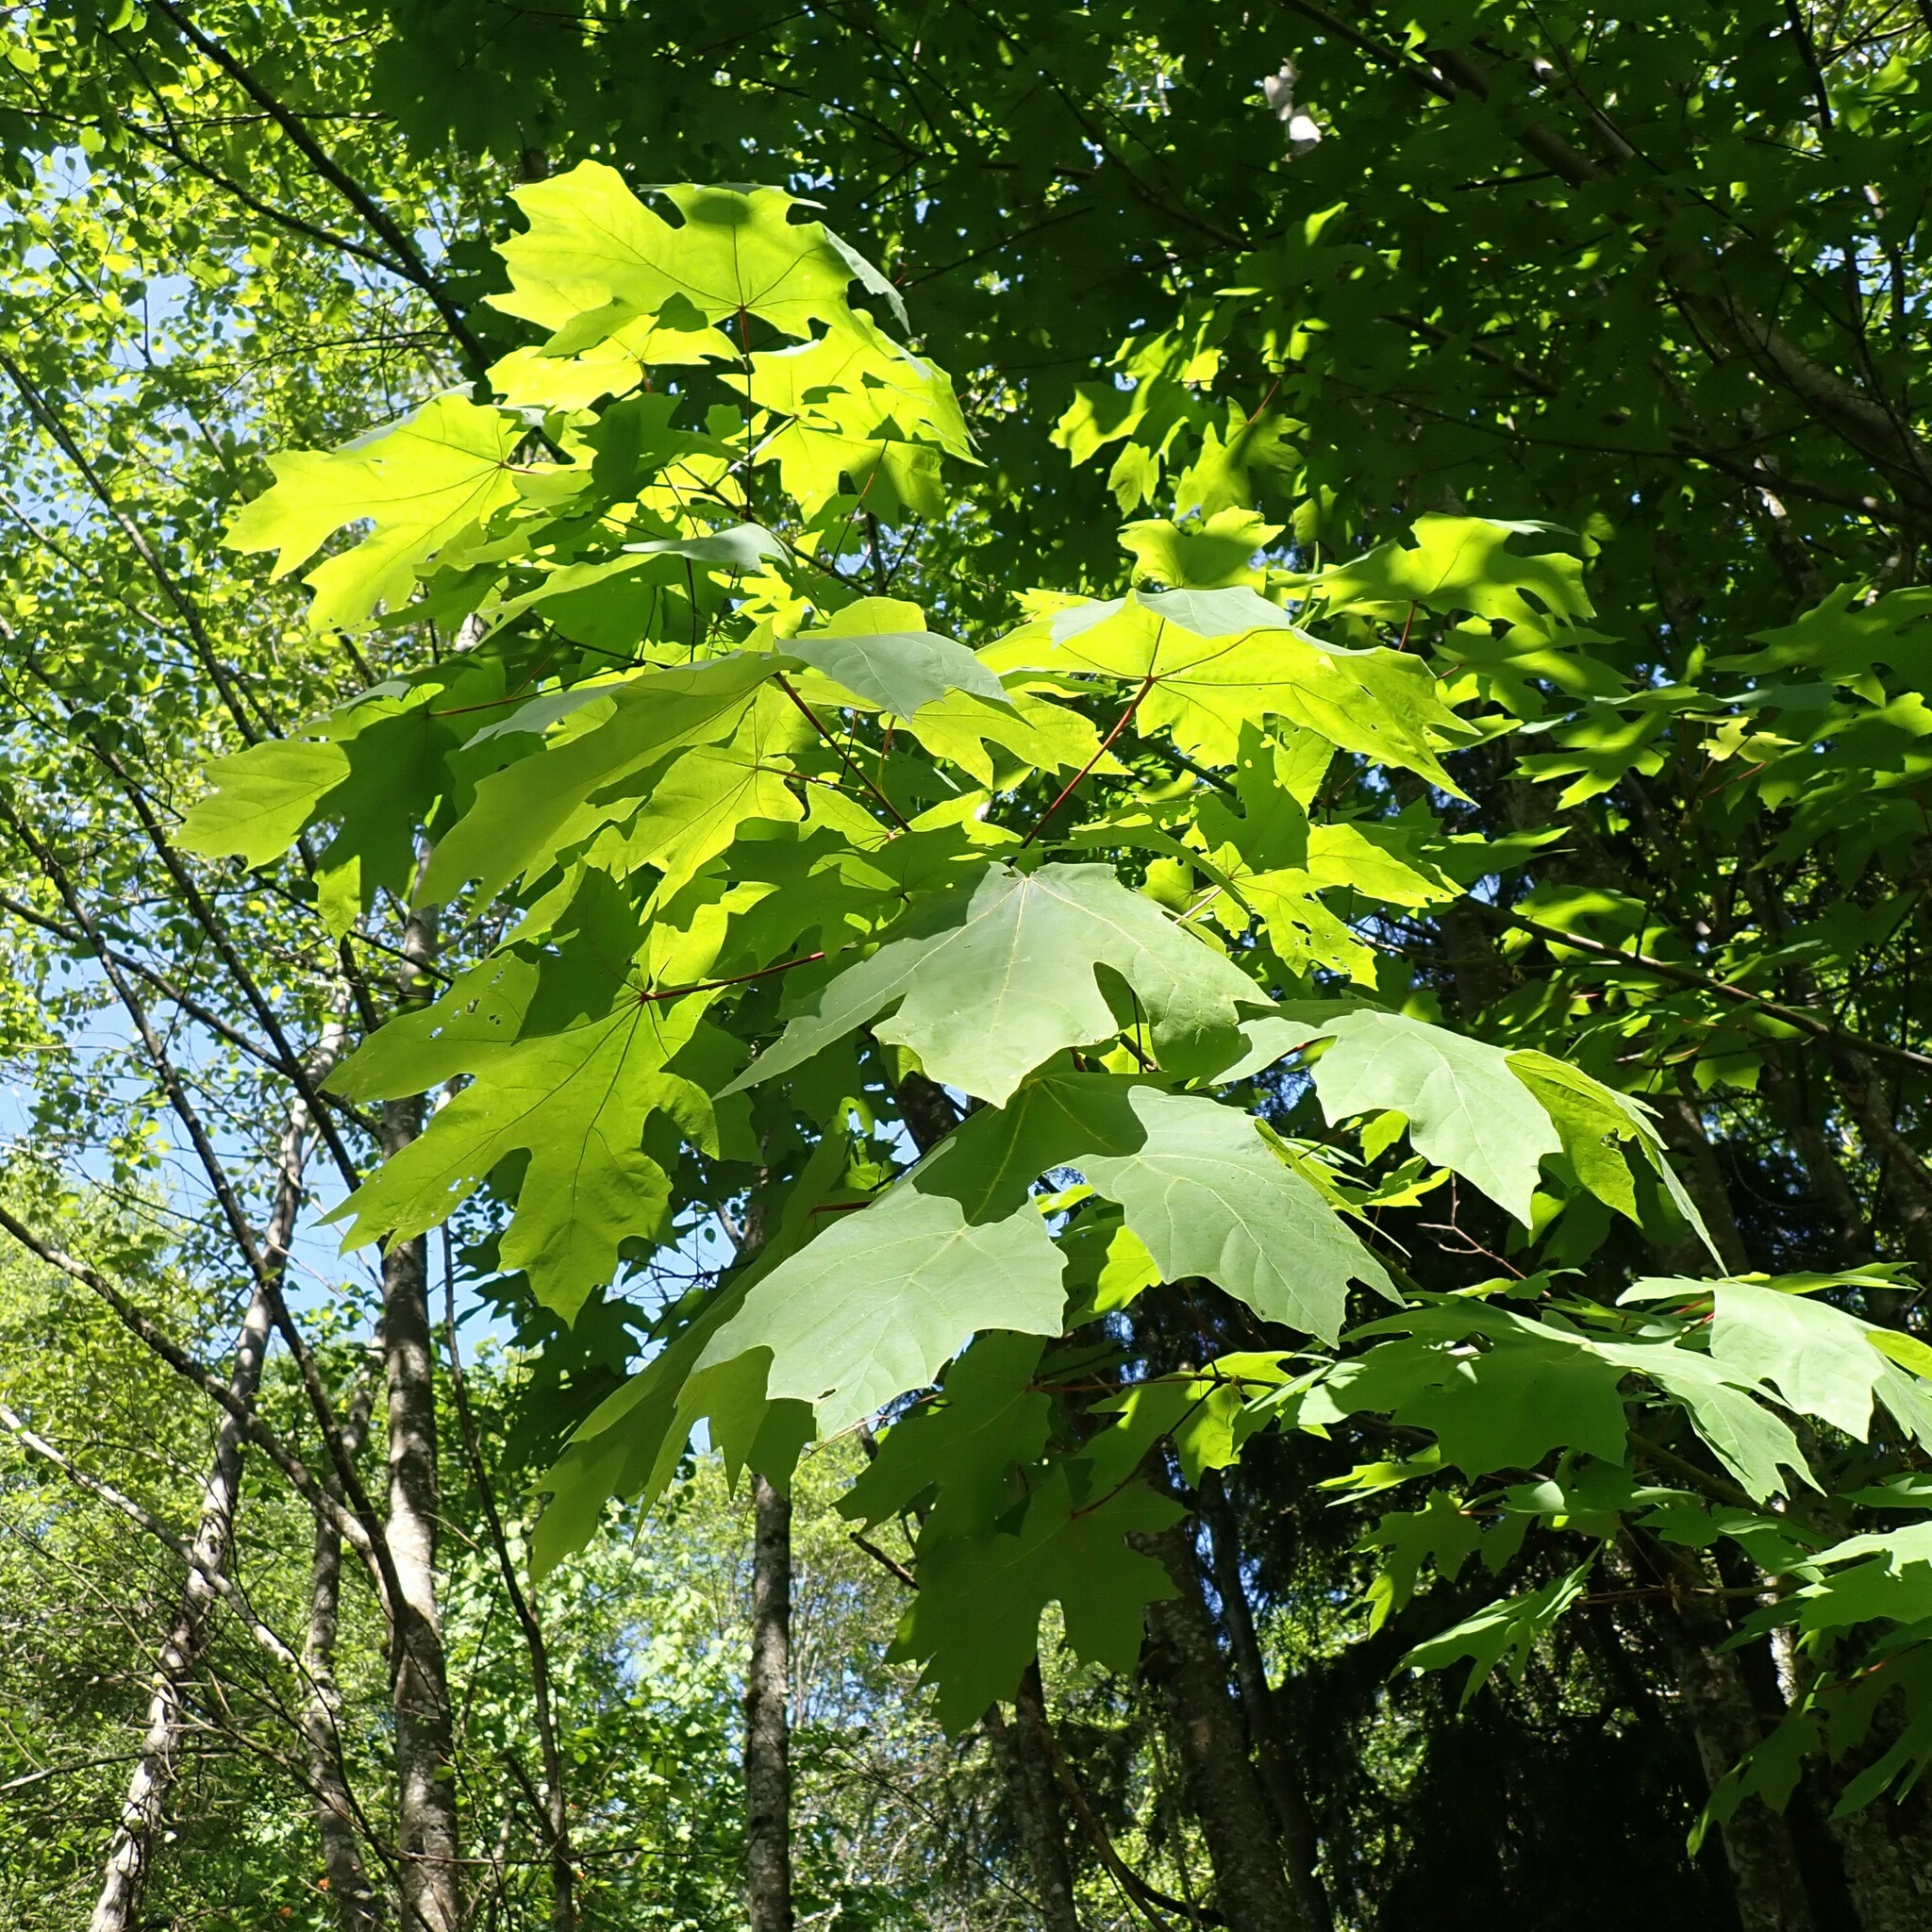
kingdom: Plantae
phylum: Tracheophyta
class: Magnoliopsida
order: Sapindales
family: Sapindaceae
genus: Acer
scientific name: Acer macrophyllum
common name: Oregon maple
